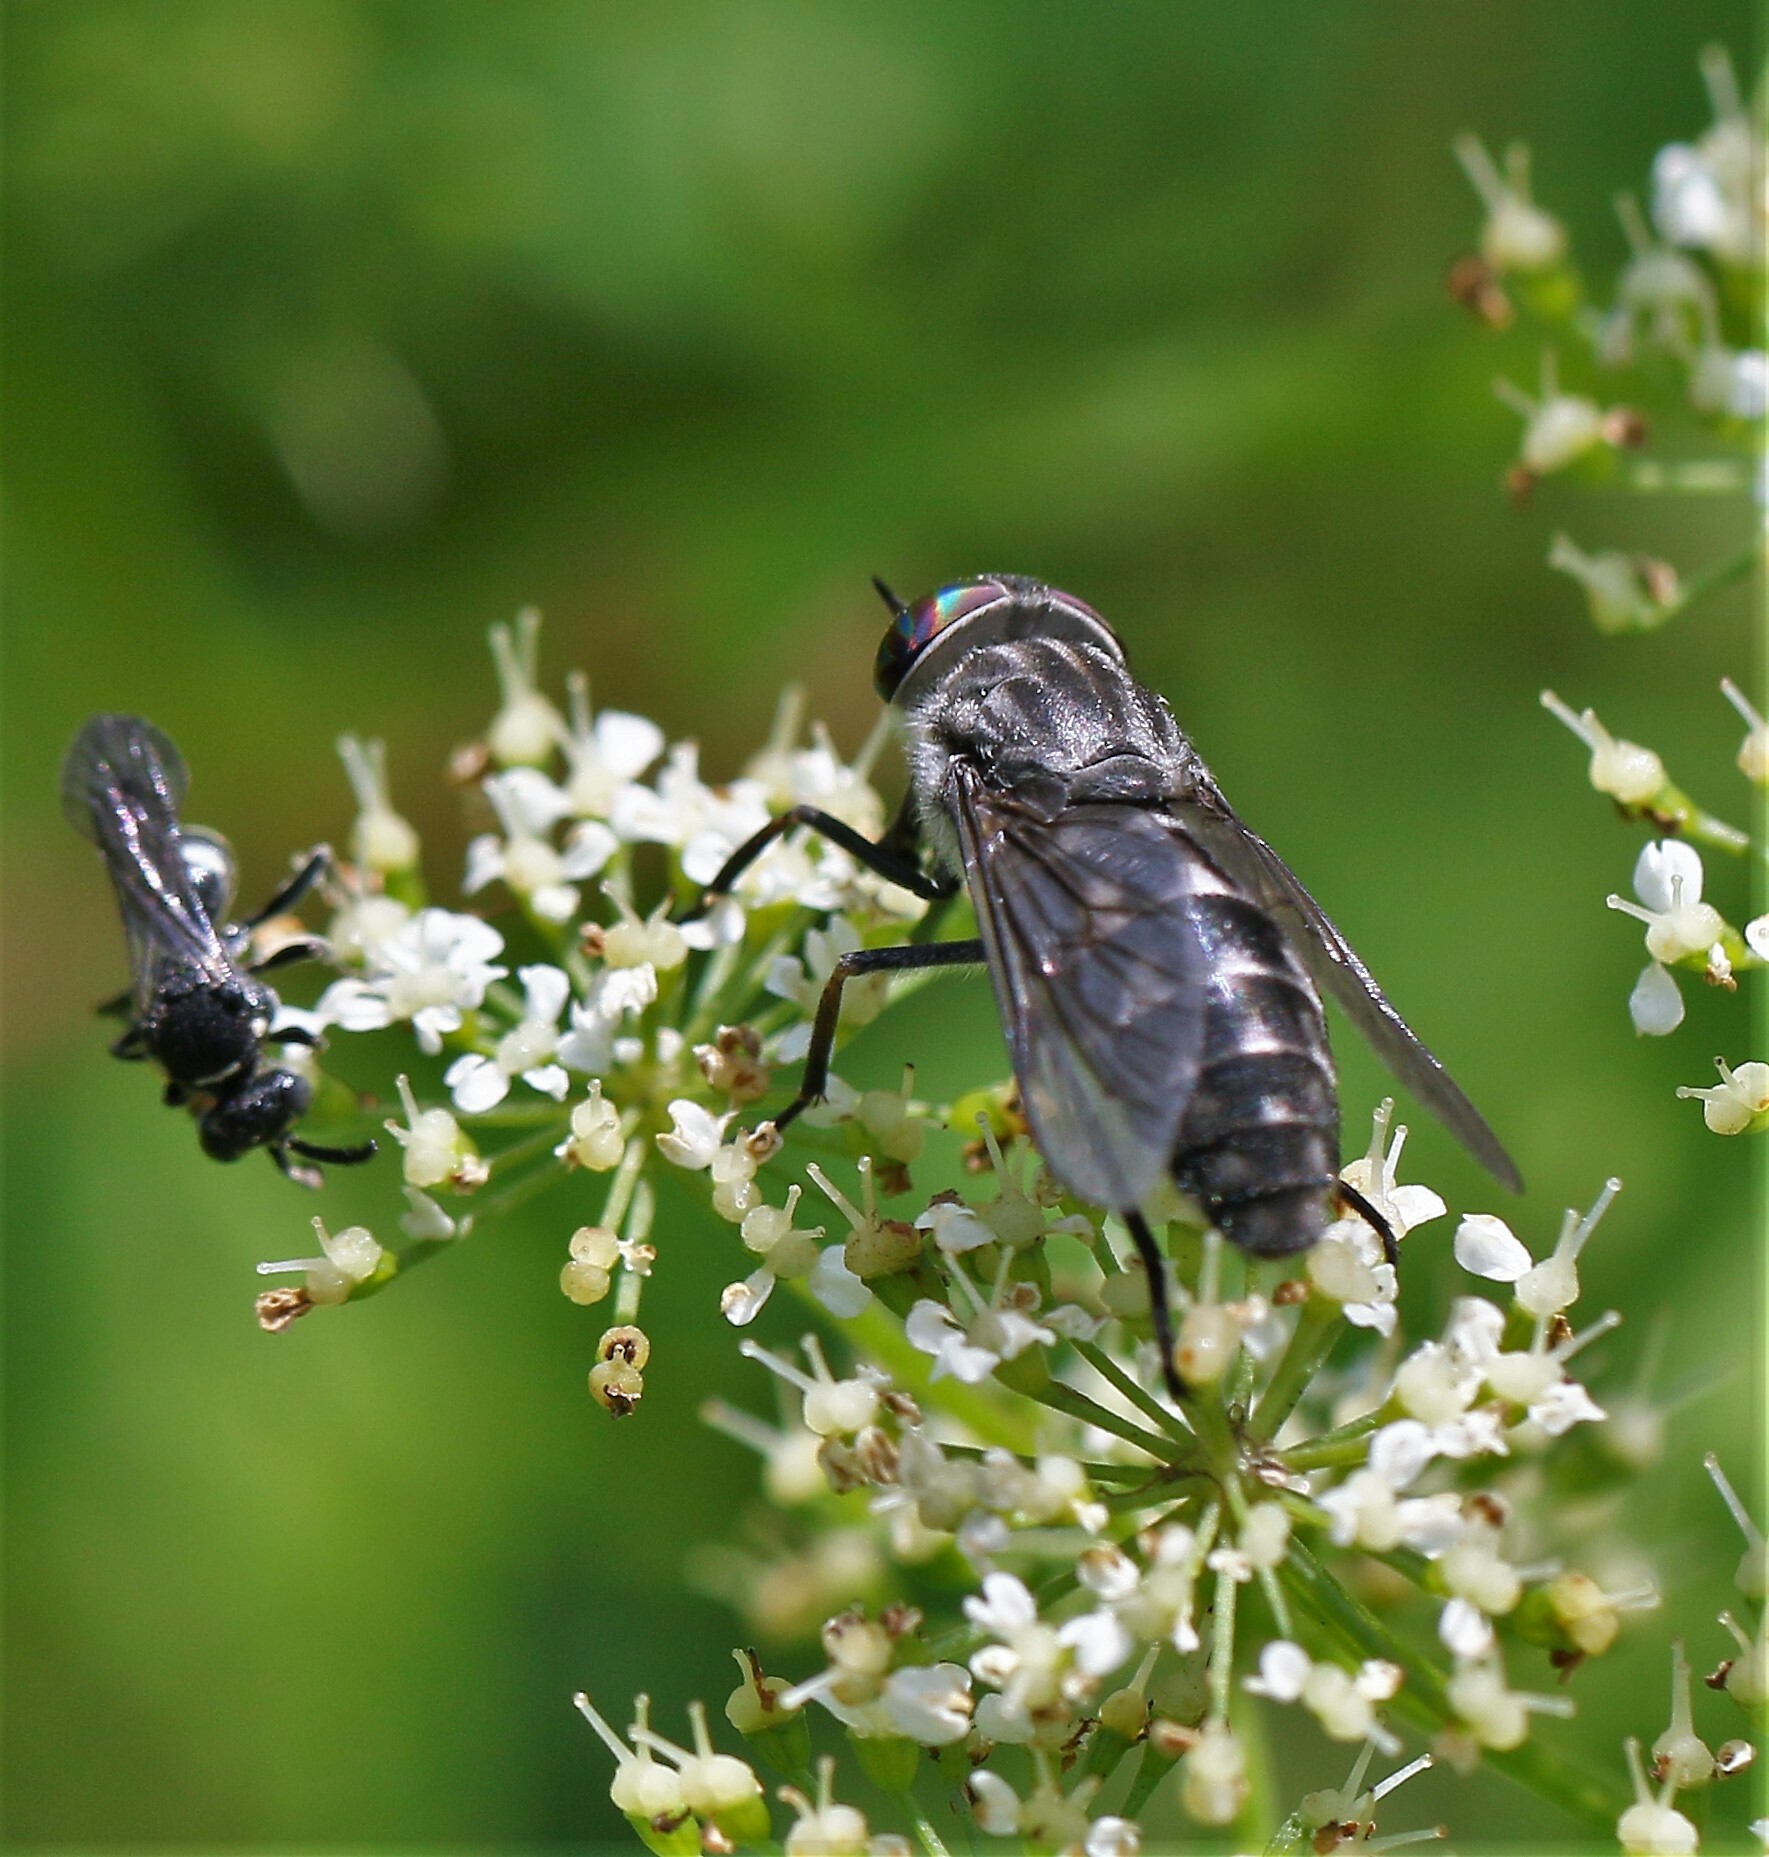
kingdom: Animalia
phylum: Arthropoda
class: Insecta
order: Diptera
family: Tabanidae
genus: Hybomitra
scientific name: Hybomitra pechumani
